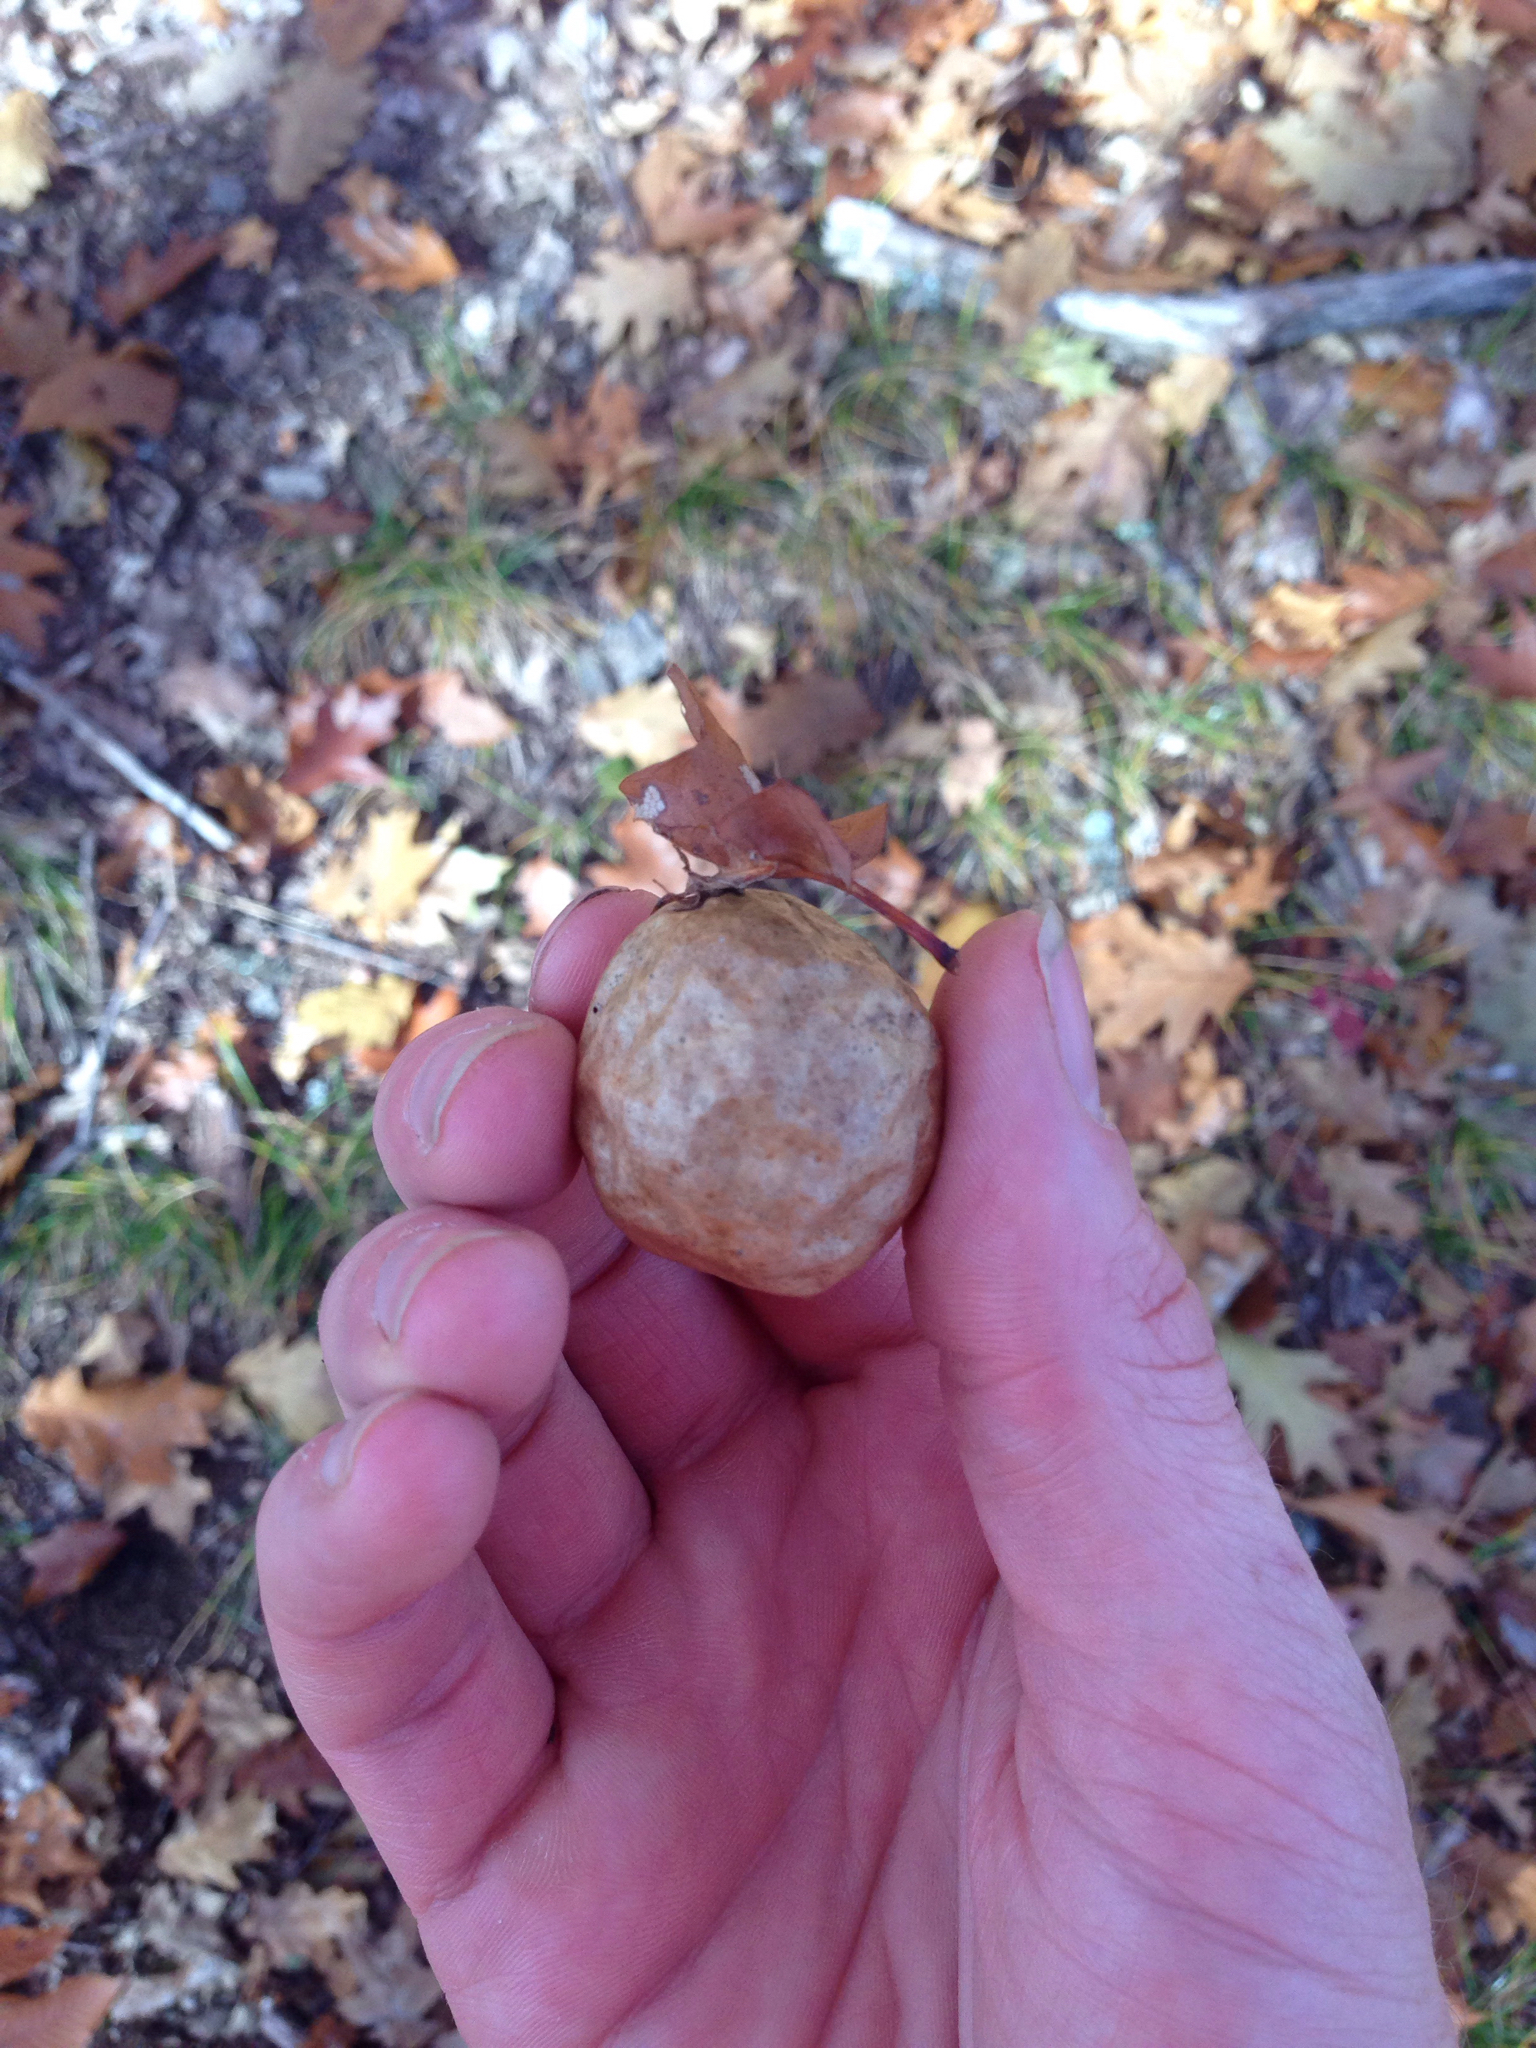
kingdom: Animalia
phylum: Arthropoda
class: Insecta
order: Hymenoptera
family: Cynipidae
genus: Amphibolips
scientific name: Amphibolips
